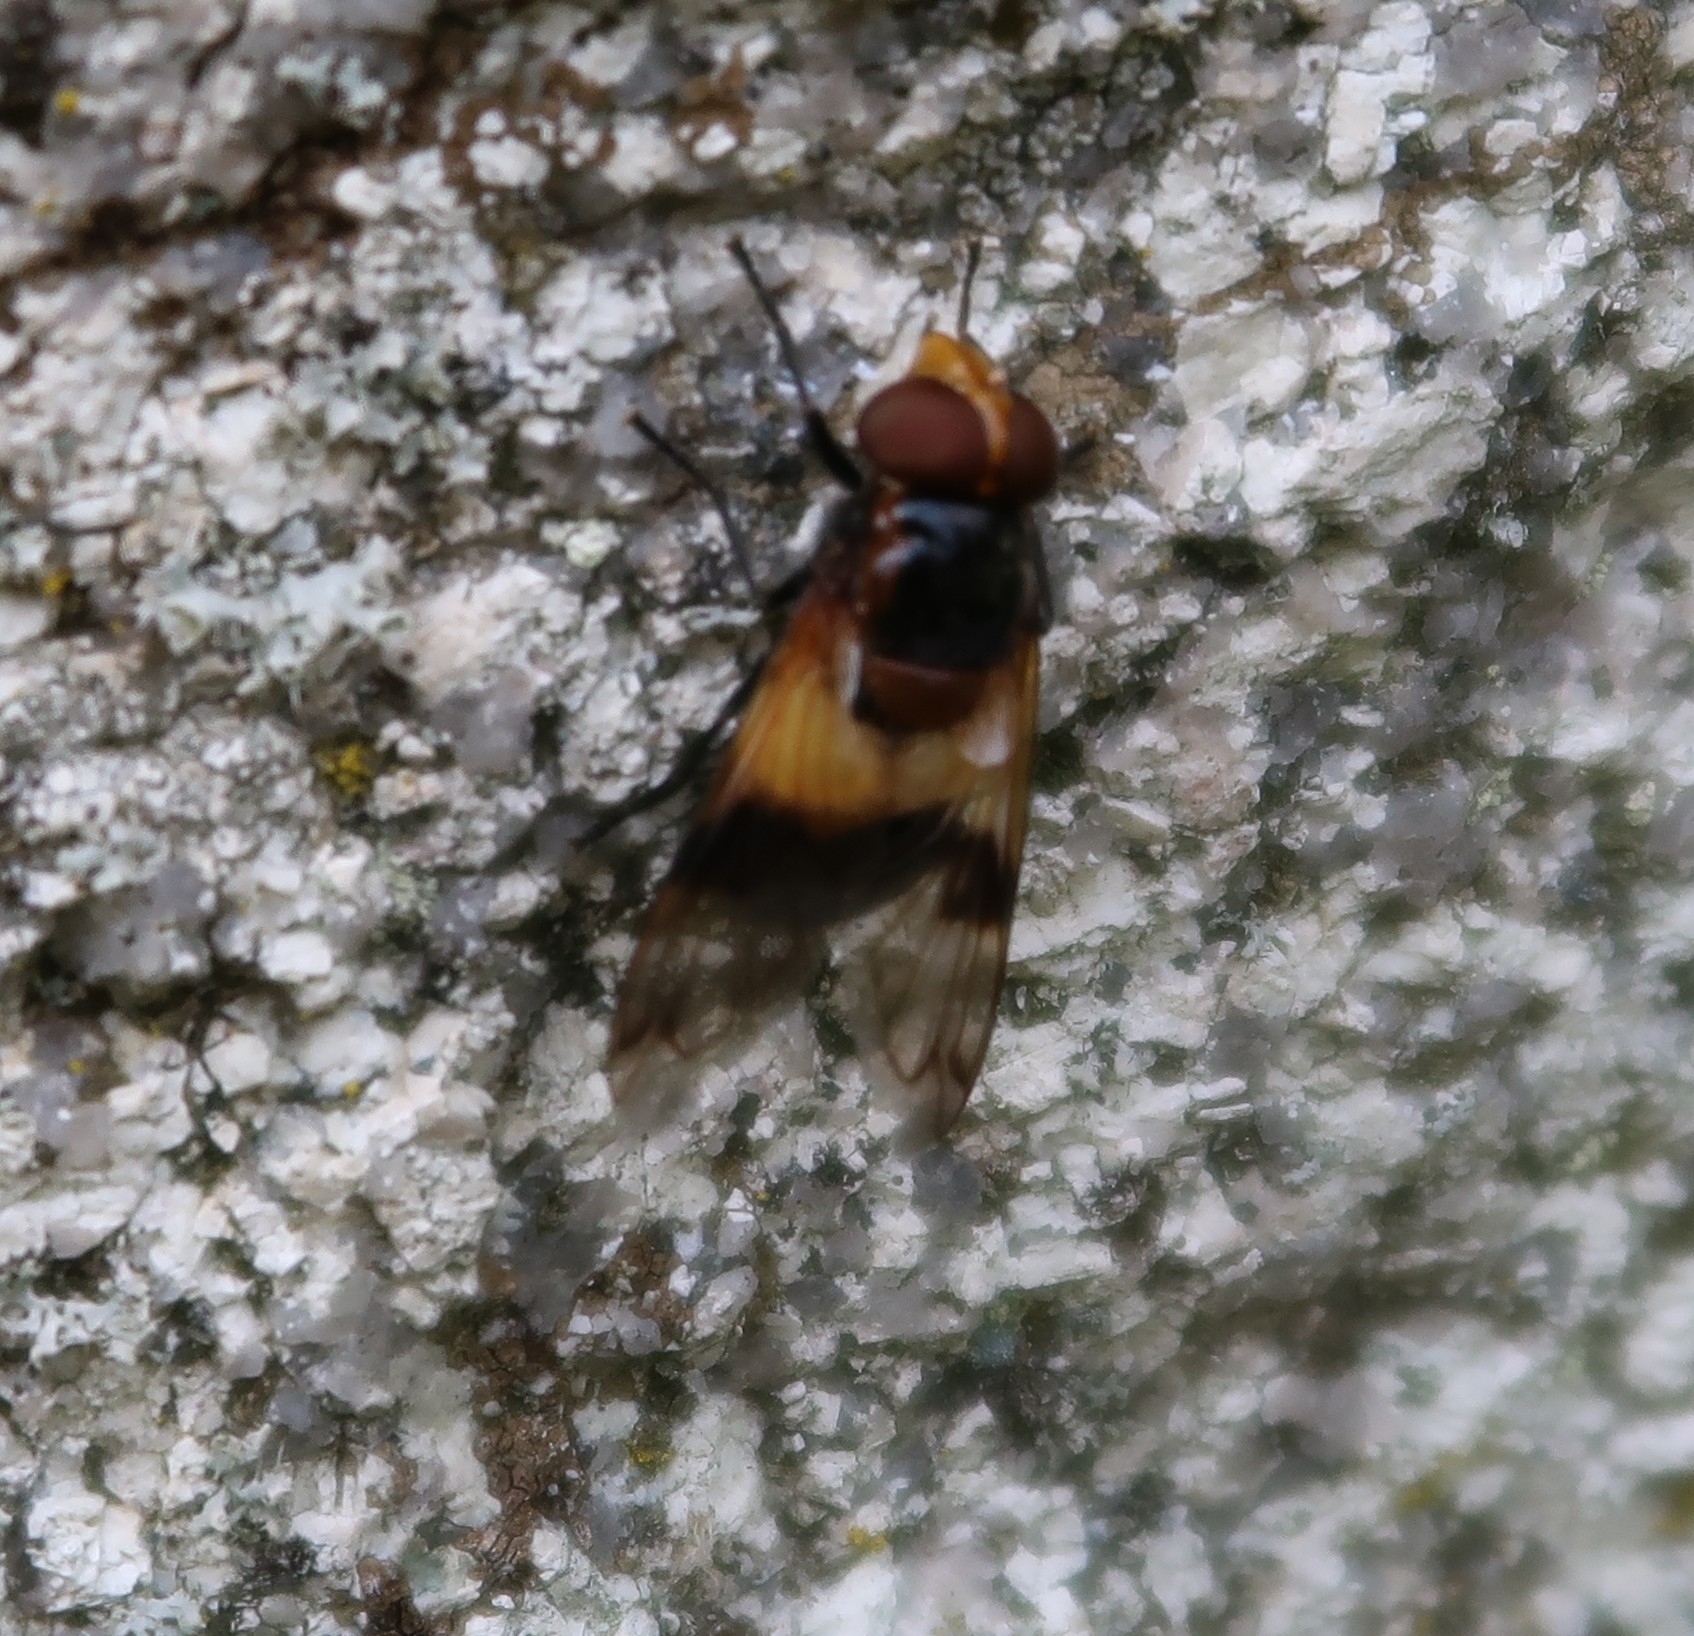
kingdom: Animalia
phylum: Arthropoda
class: Insecta
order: Diptera
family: Syrphidae
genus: Volucella
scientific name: Volucella pellucens
